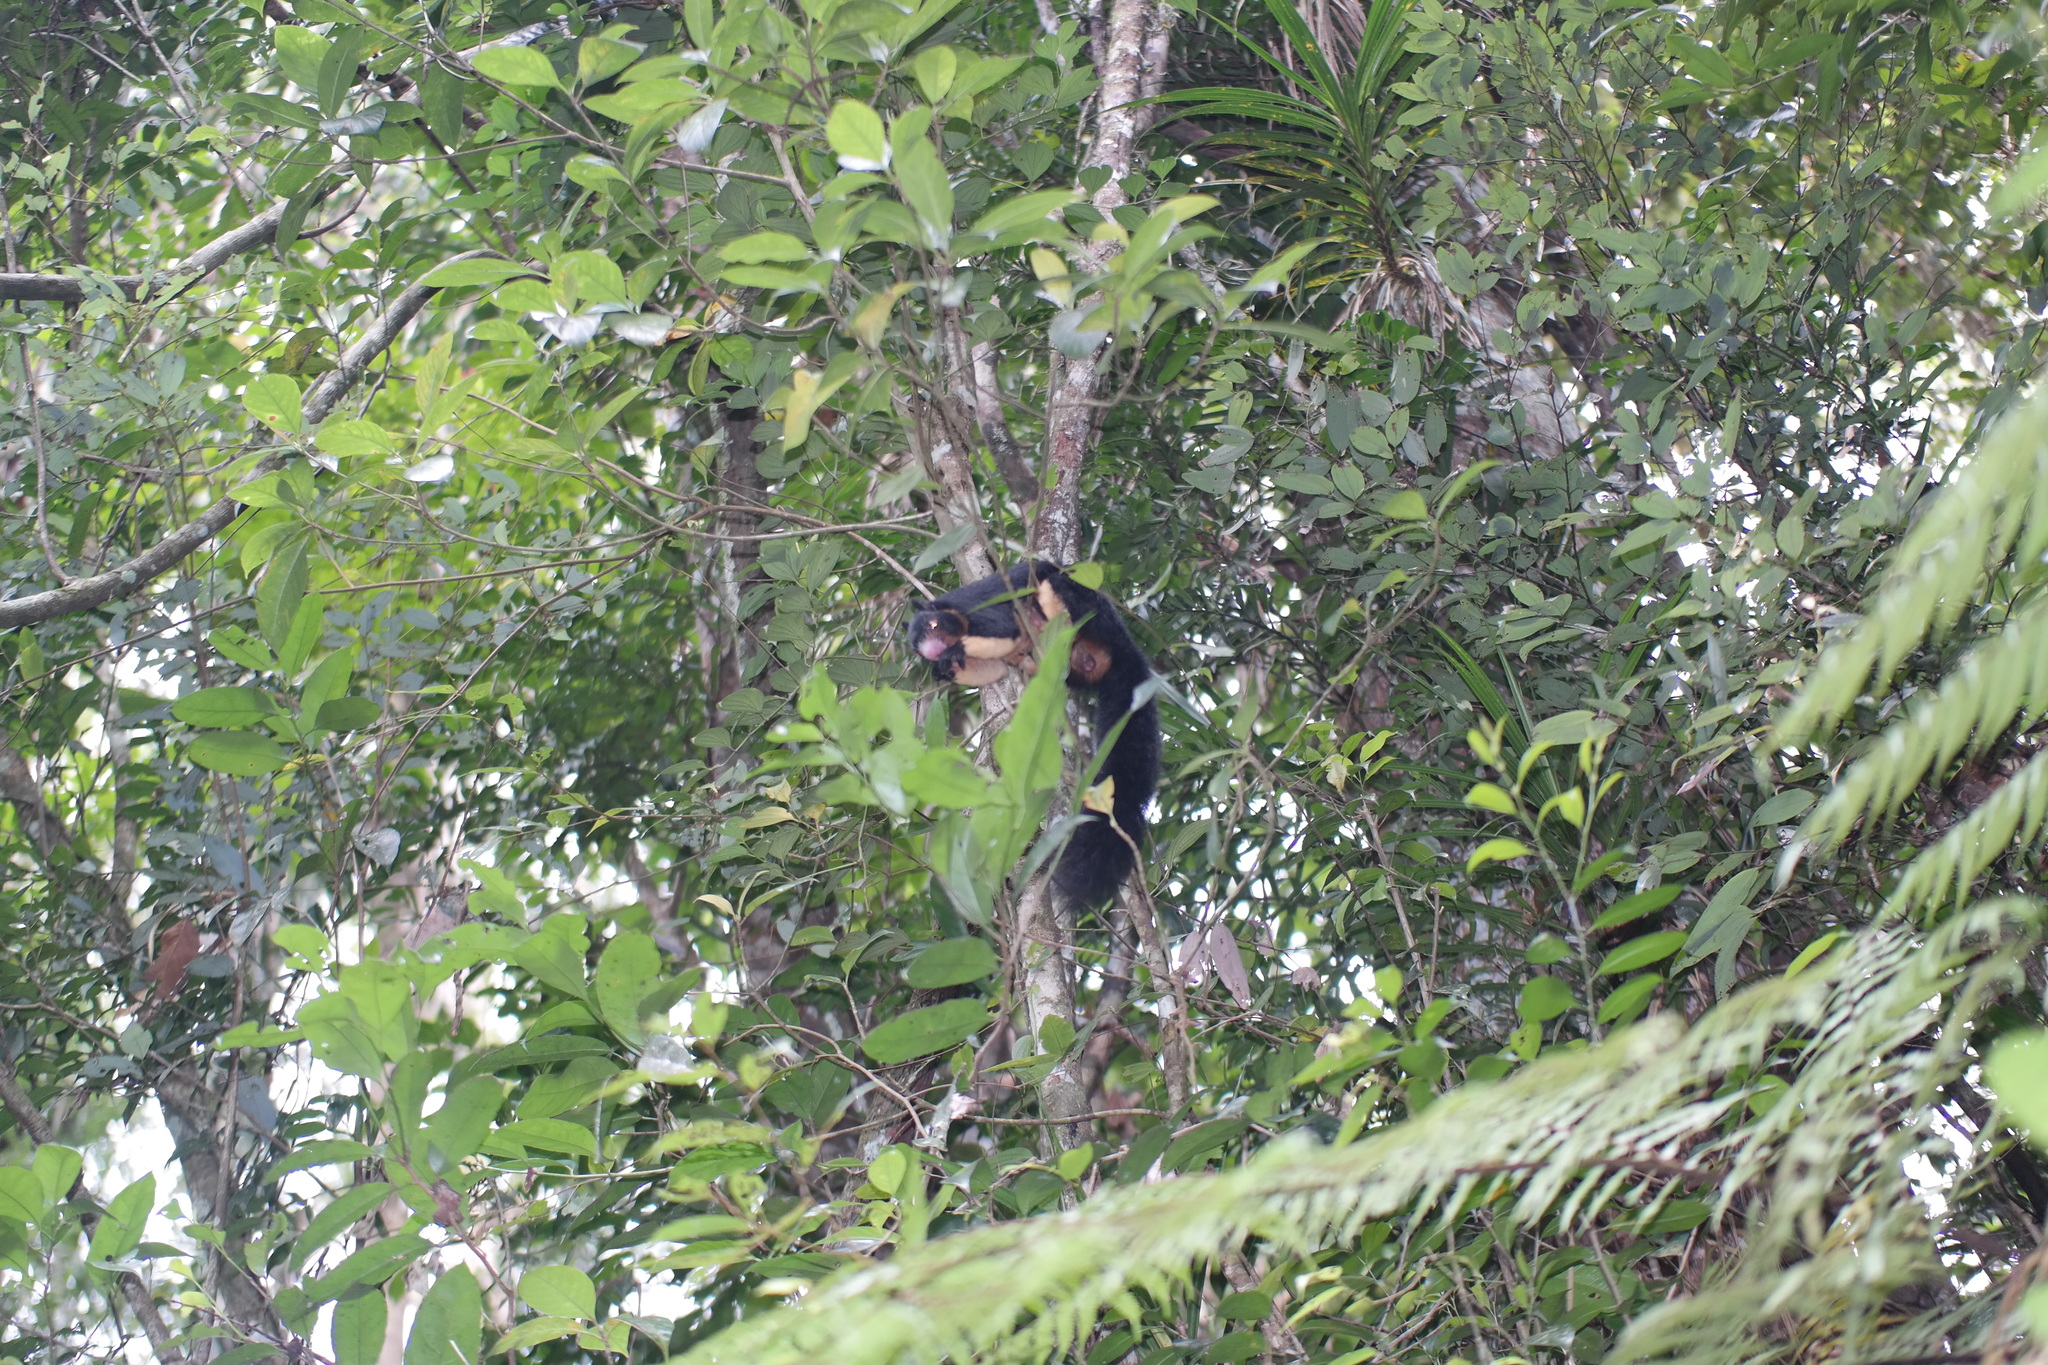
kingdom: Animalia
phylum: Chordata
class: Mammalia
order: Rodentia
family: Sciuridae
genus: Ratufa
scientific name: Ratufa macroura
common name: Sri lankan giant squirrel
